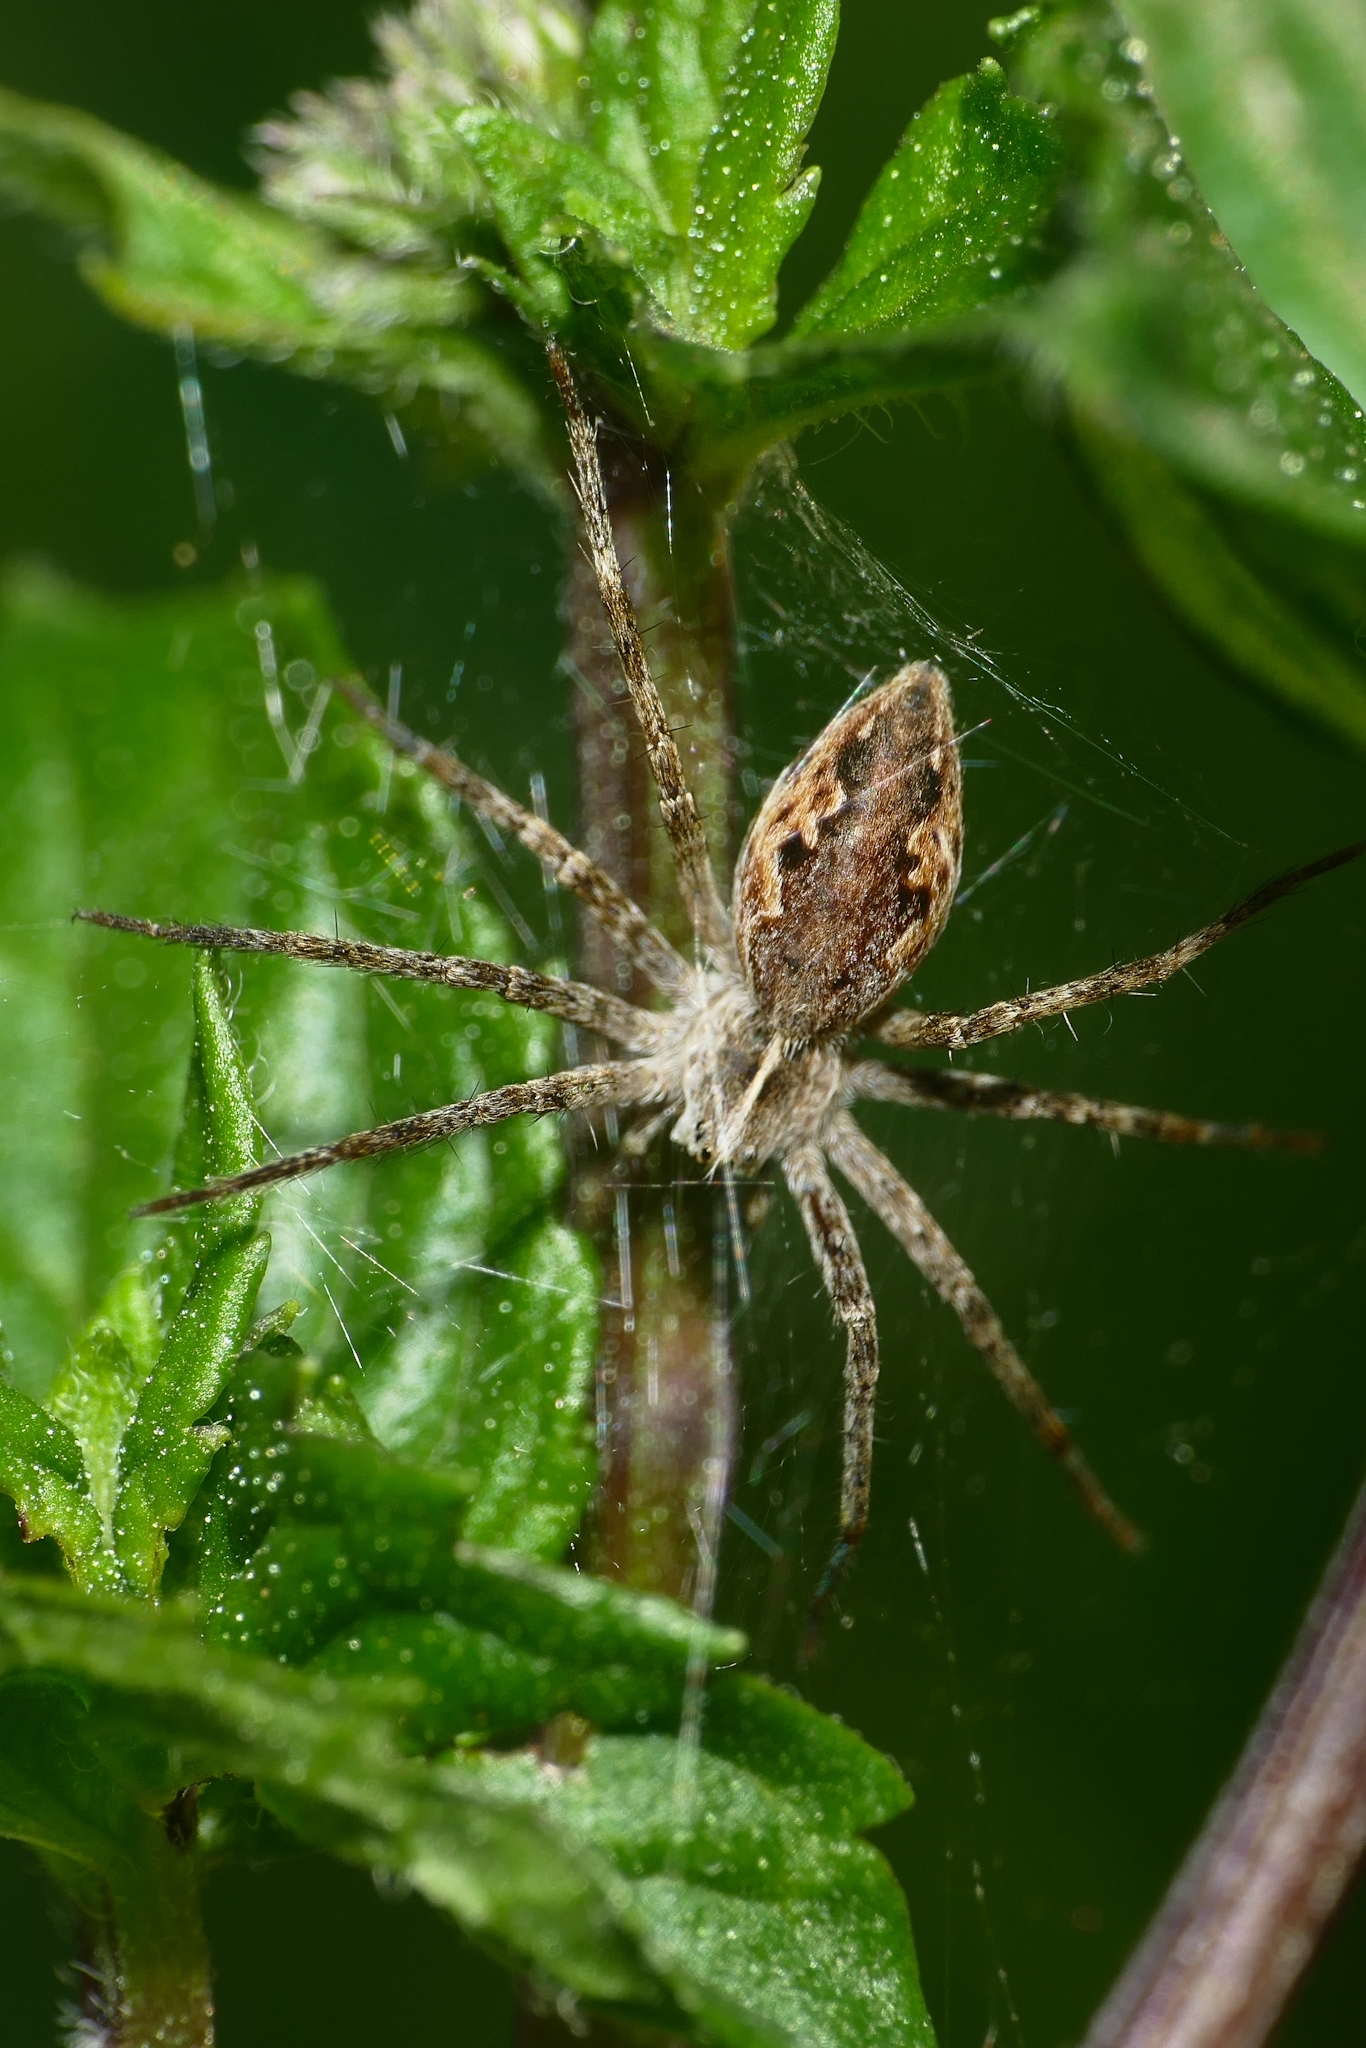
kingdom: Animalia
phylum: Arthropoda
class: Arachnida
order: Araneae
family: Pisauridae
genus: Pisaura
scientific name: Pisaura mirabilis
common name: Tent spider
